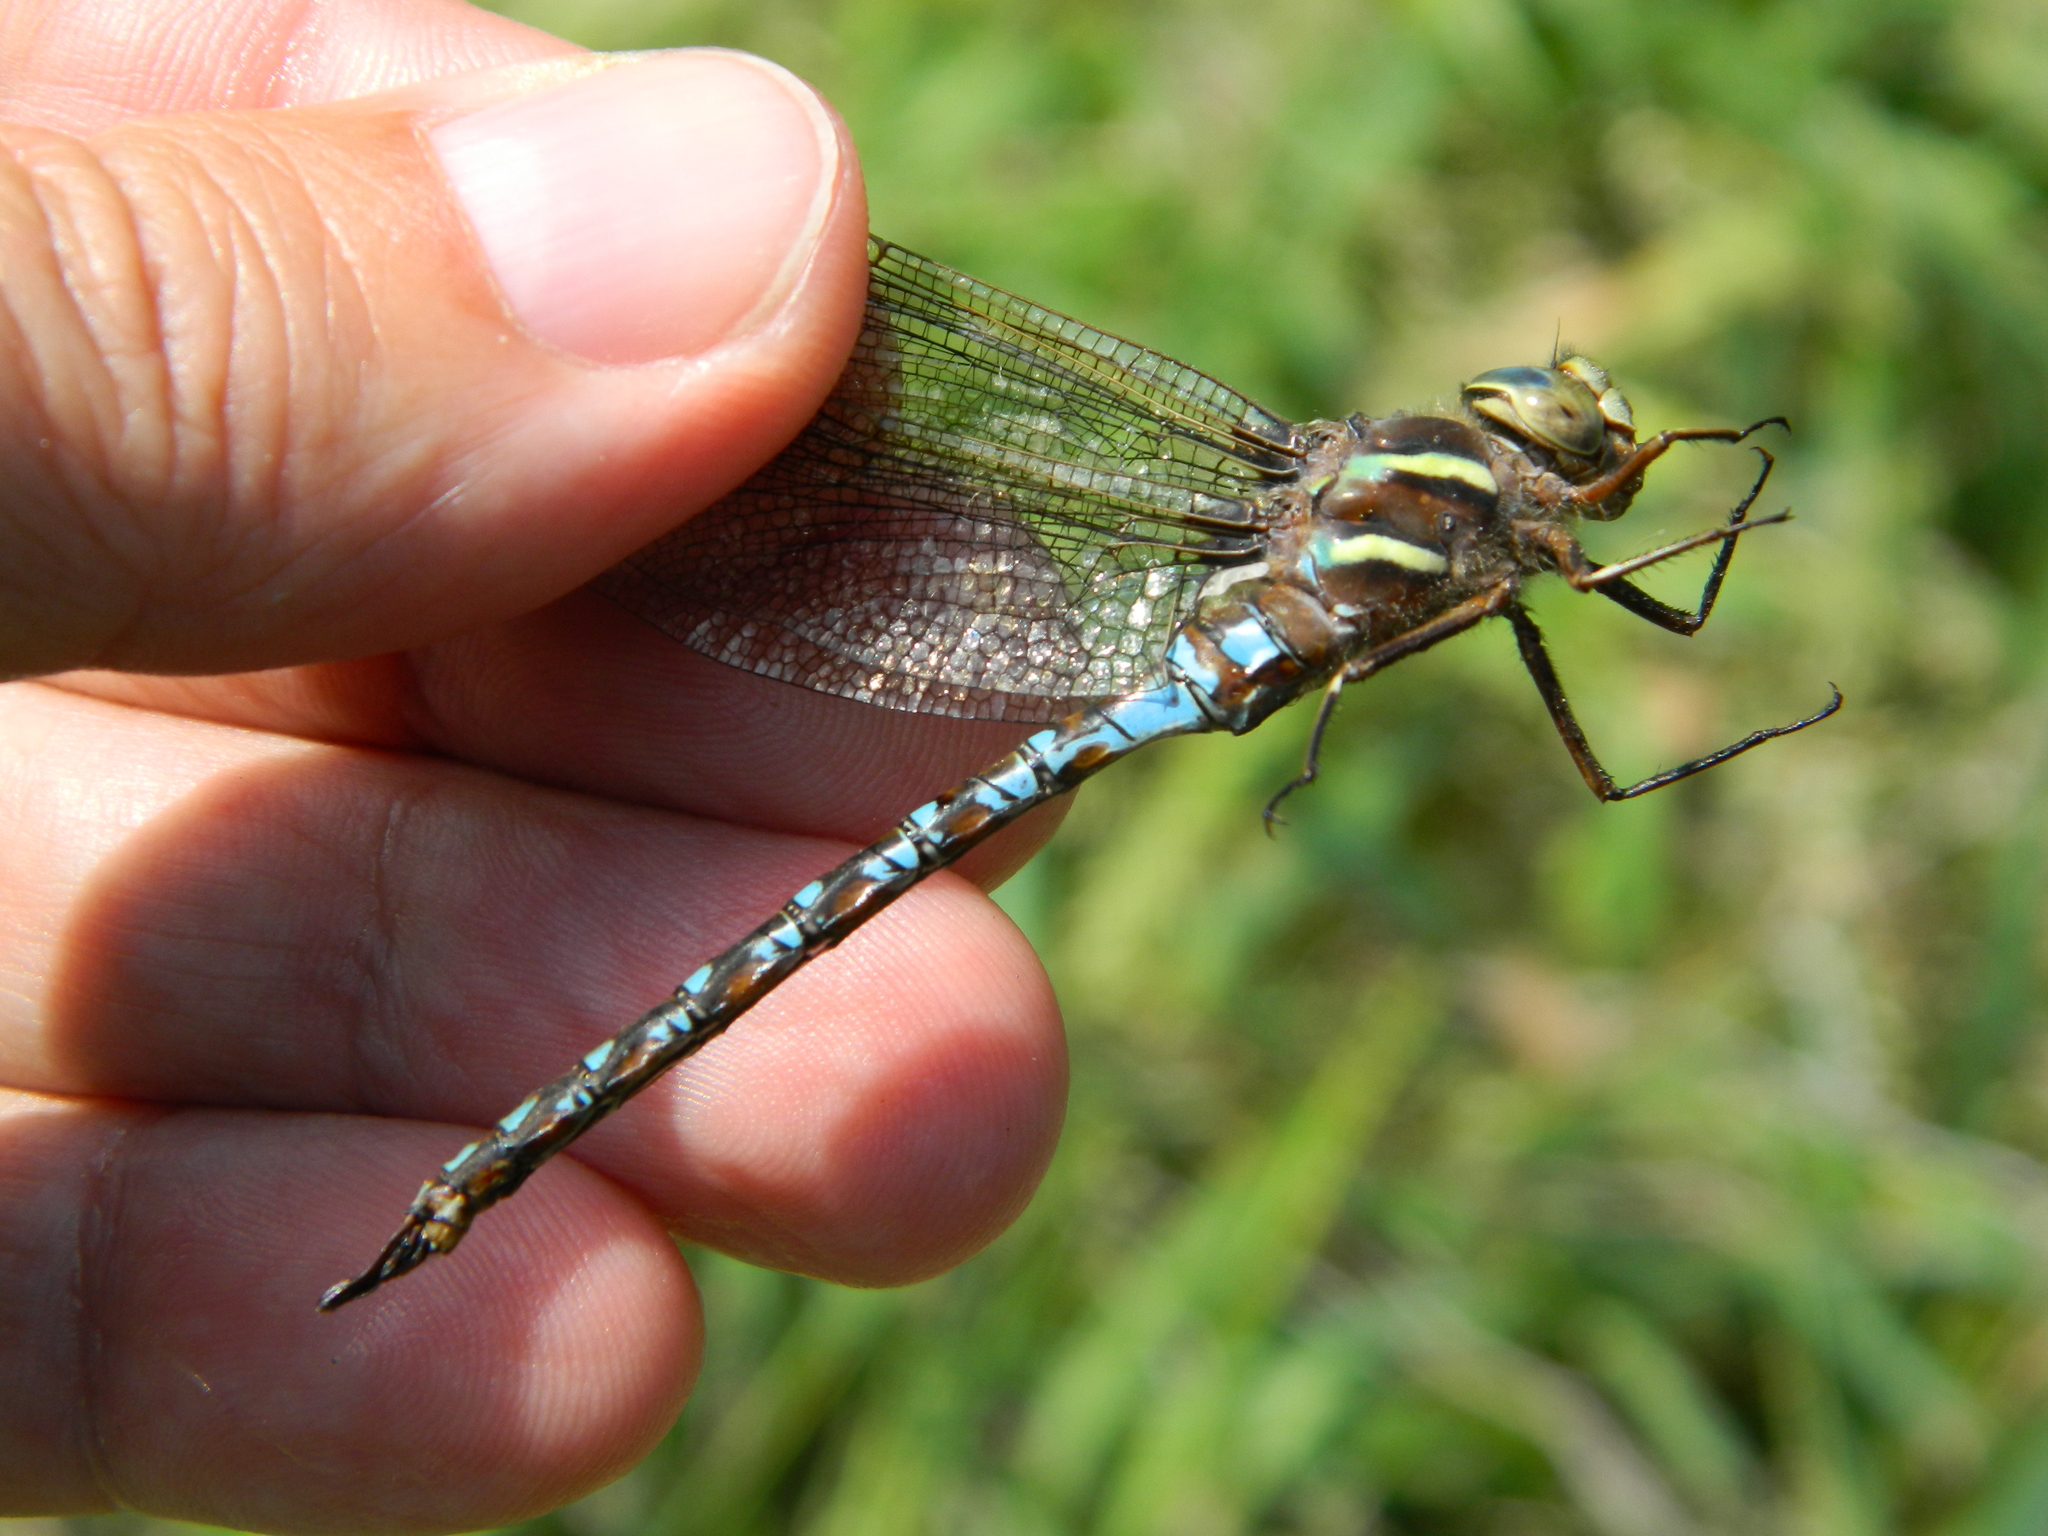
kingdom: Animalia
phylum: Arthropoda
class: Insecta
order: Odonata
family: Aeshnidae
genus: Basiaeschna
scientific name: Basiaeschna janata
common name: Springtime darner
